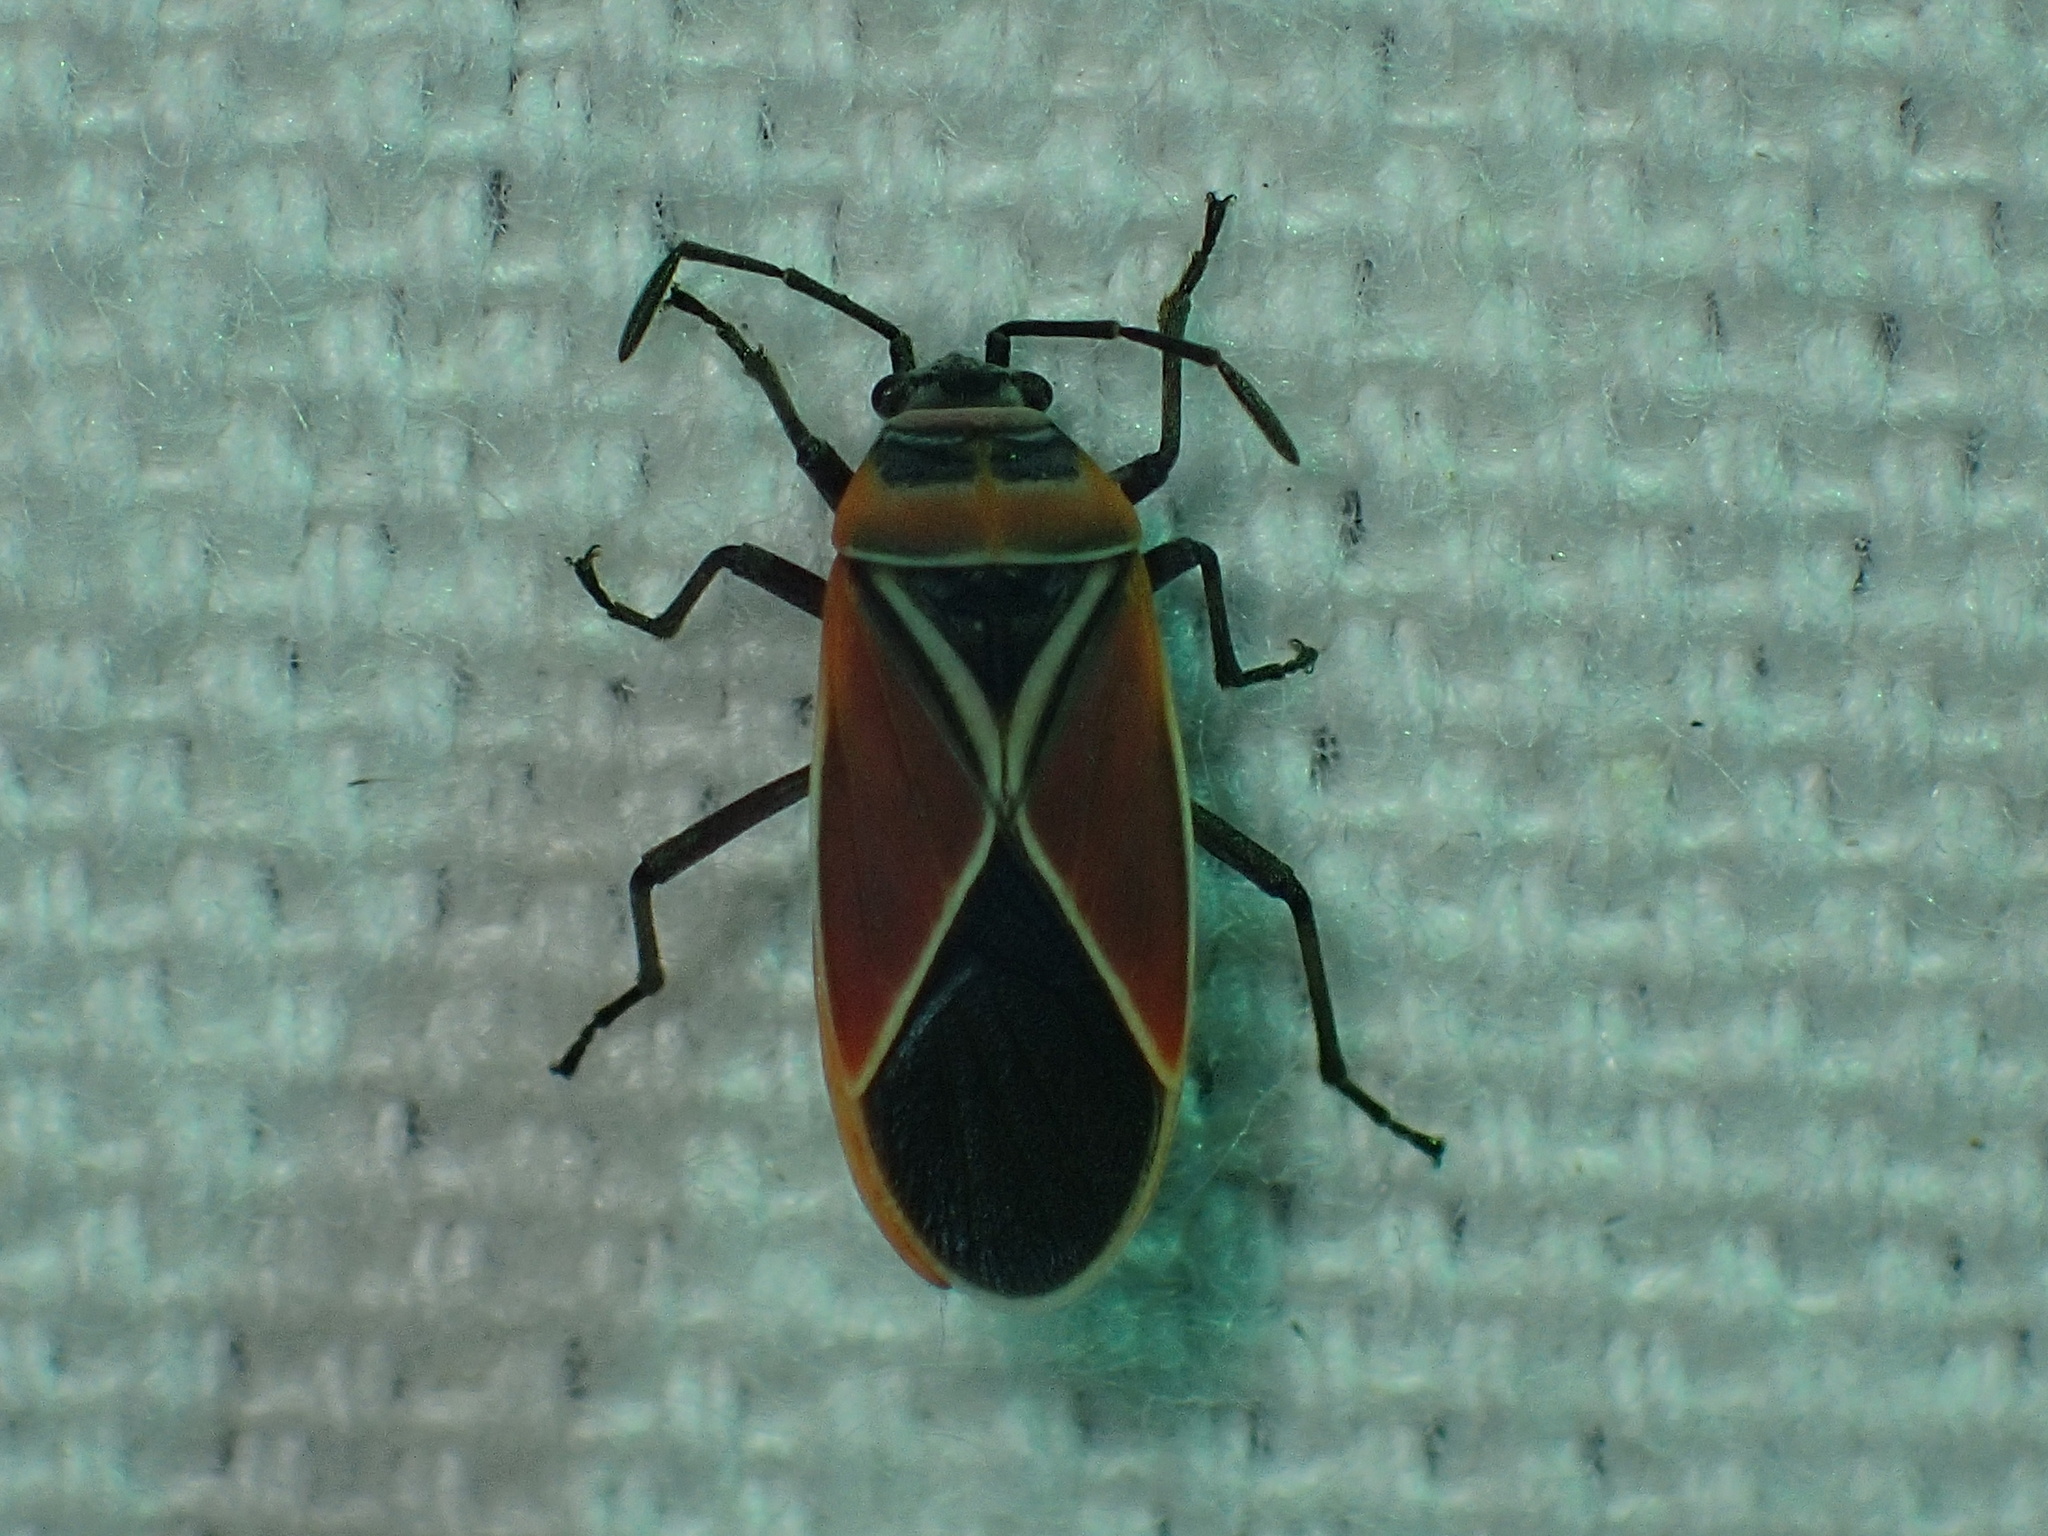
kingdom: Animalia
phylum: Arthropoda
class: Insecta
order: Hemiptera
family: Lygaeidae
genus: Neacoryphus
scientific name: Neacoryphus bicrucis
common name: Lygaeid bug
